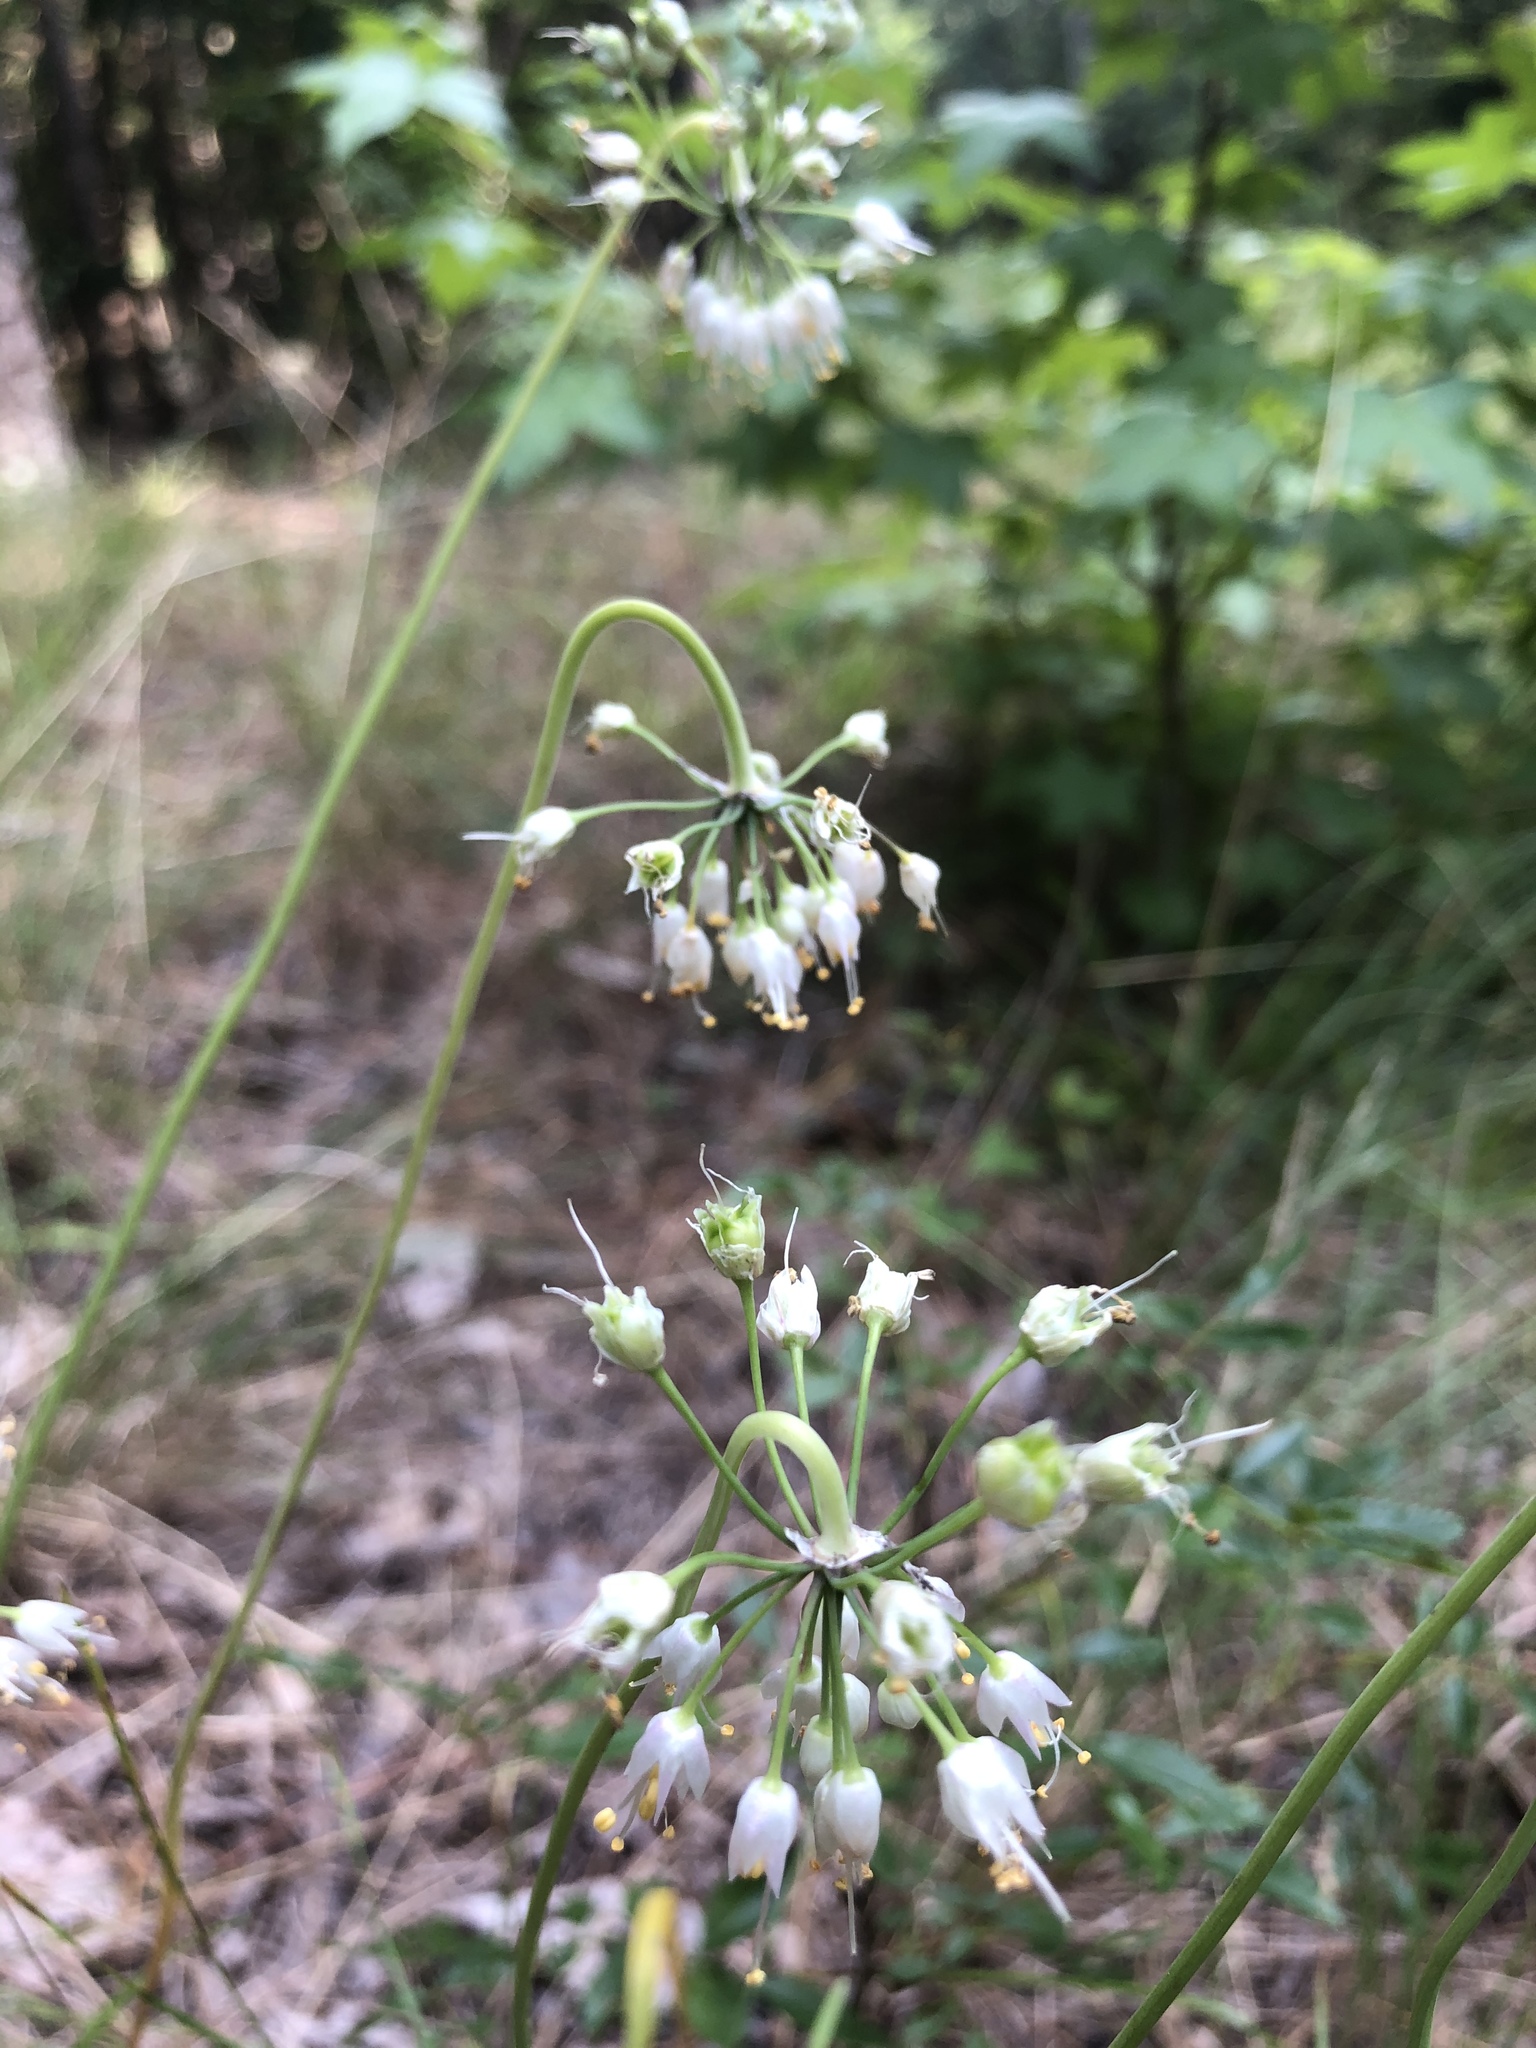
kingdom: Plantae
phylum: Tracheophyta
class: Liliopsida
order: Asparagales
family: Amaryllidaceae
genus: Allium
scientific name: Allium cernuum
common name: Nodding onion
